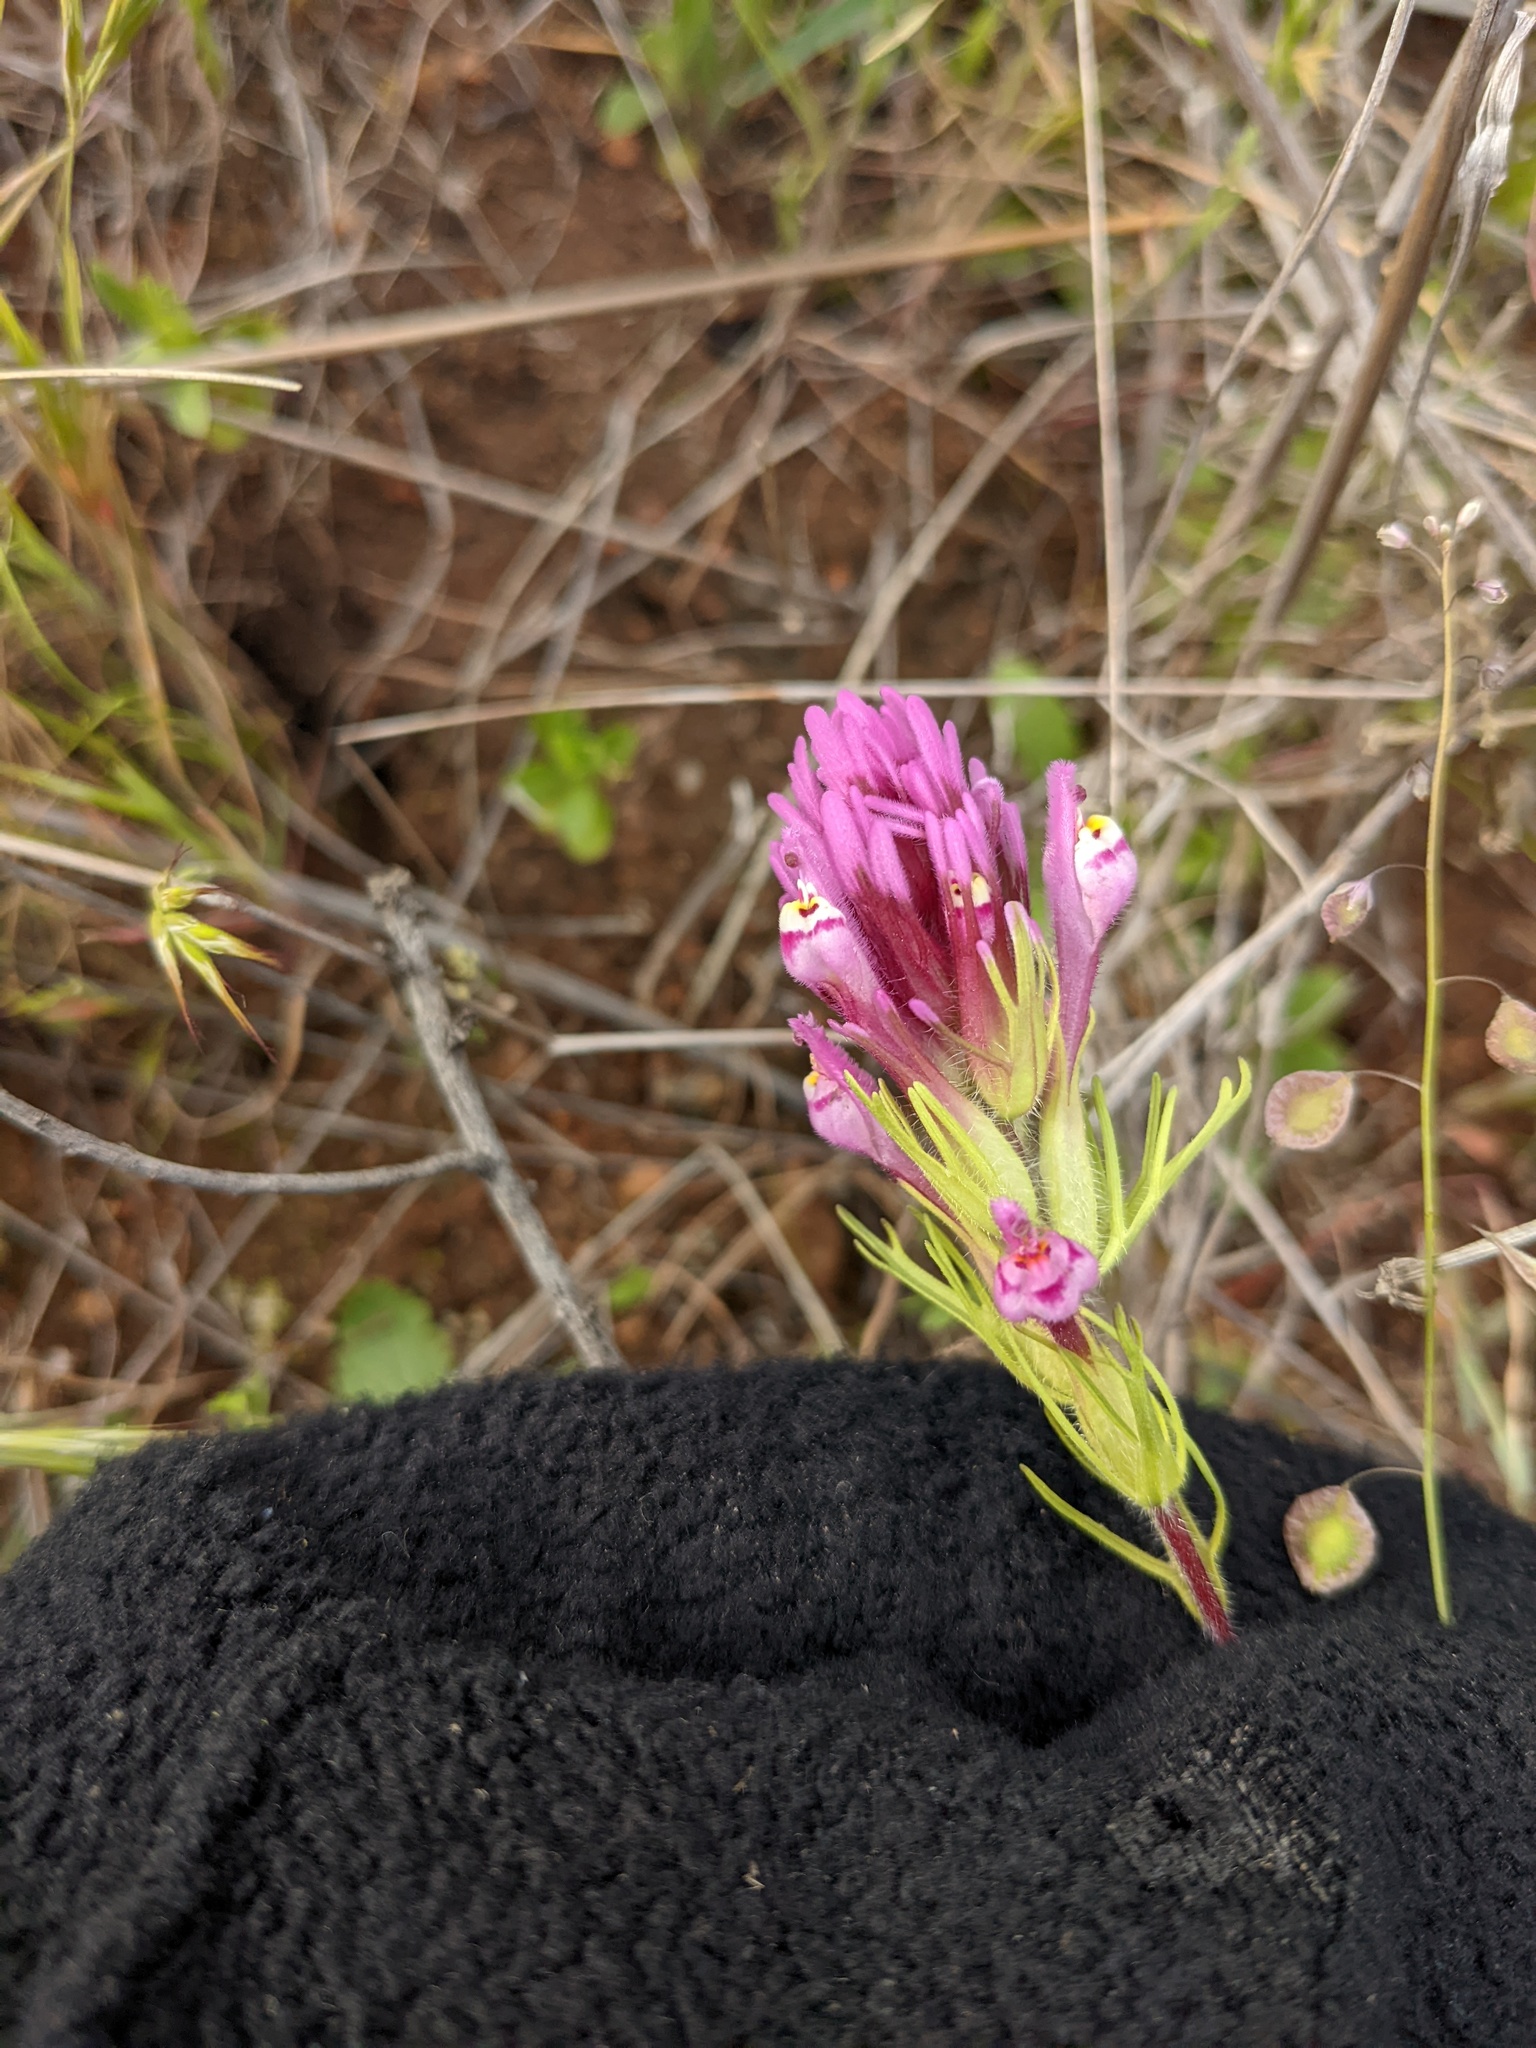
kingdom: Plantae
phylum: Tracheophyta
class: Magnoliopsida
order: Lamiales
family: Orobanchaceae
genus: Castilleja
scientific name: Castilleja exserta
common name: Purple owl-clover
